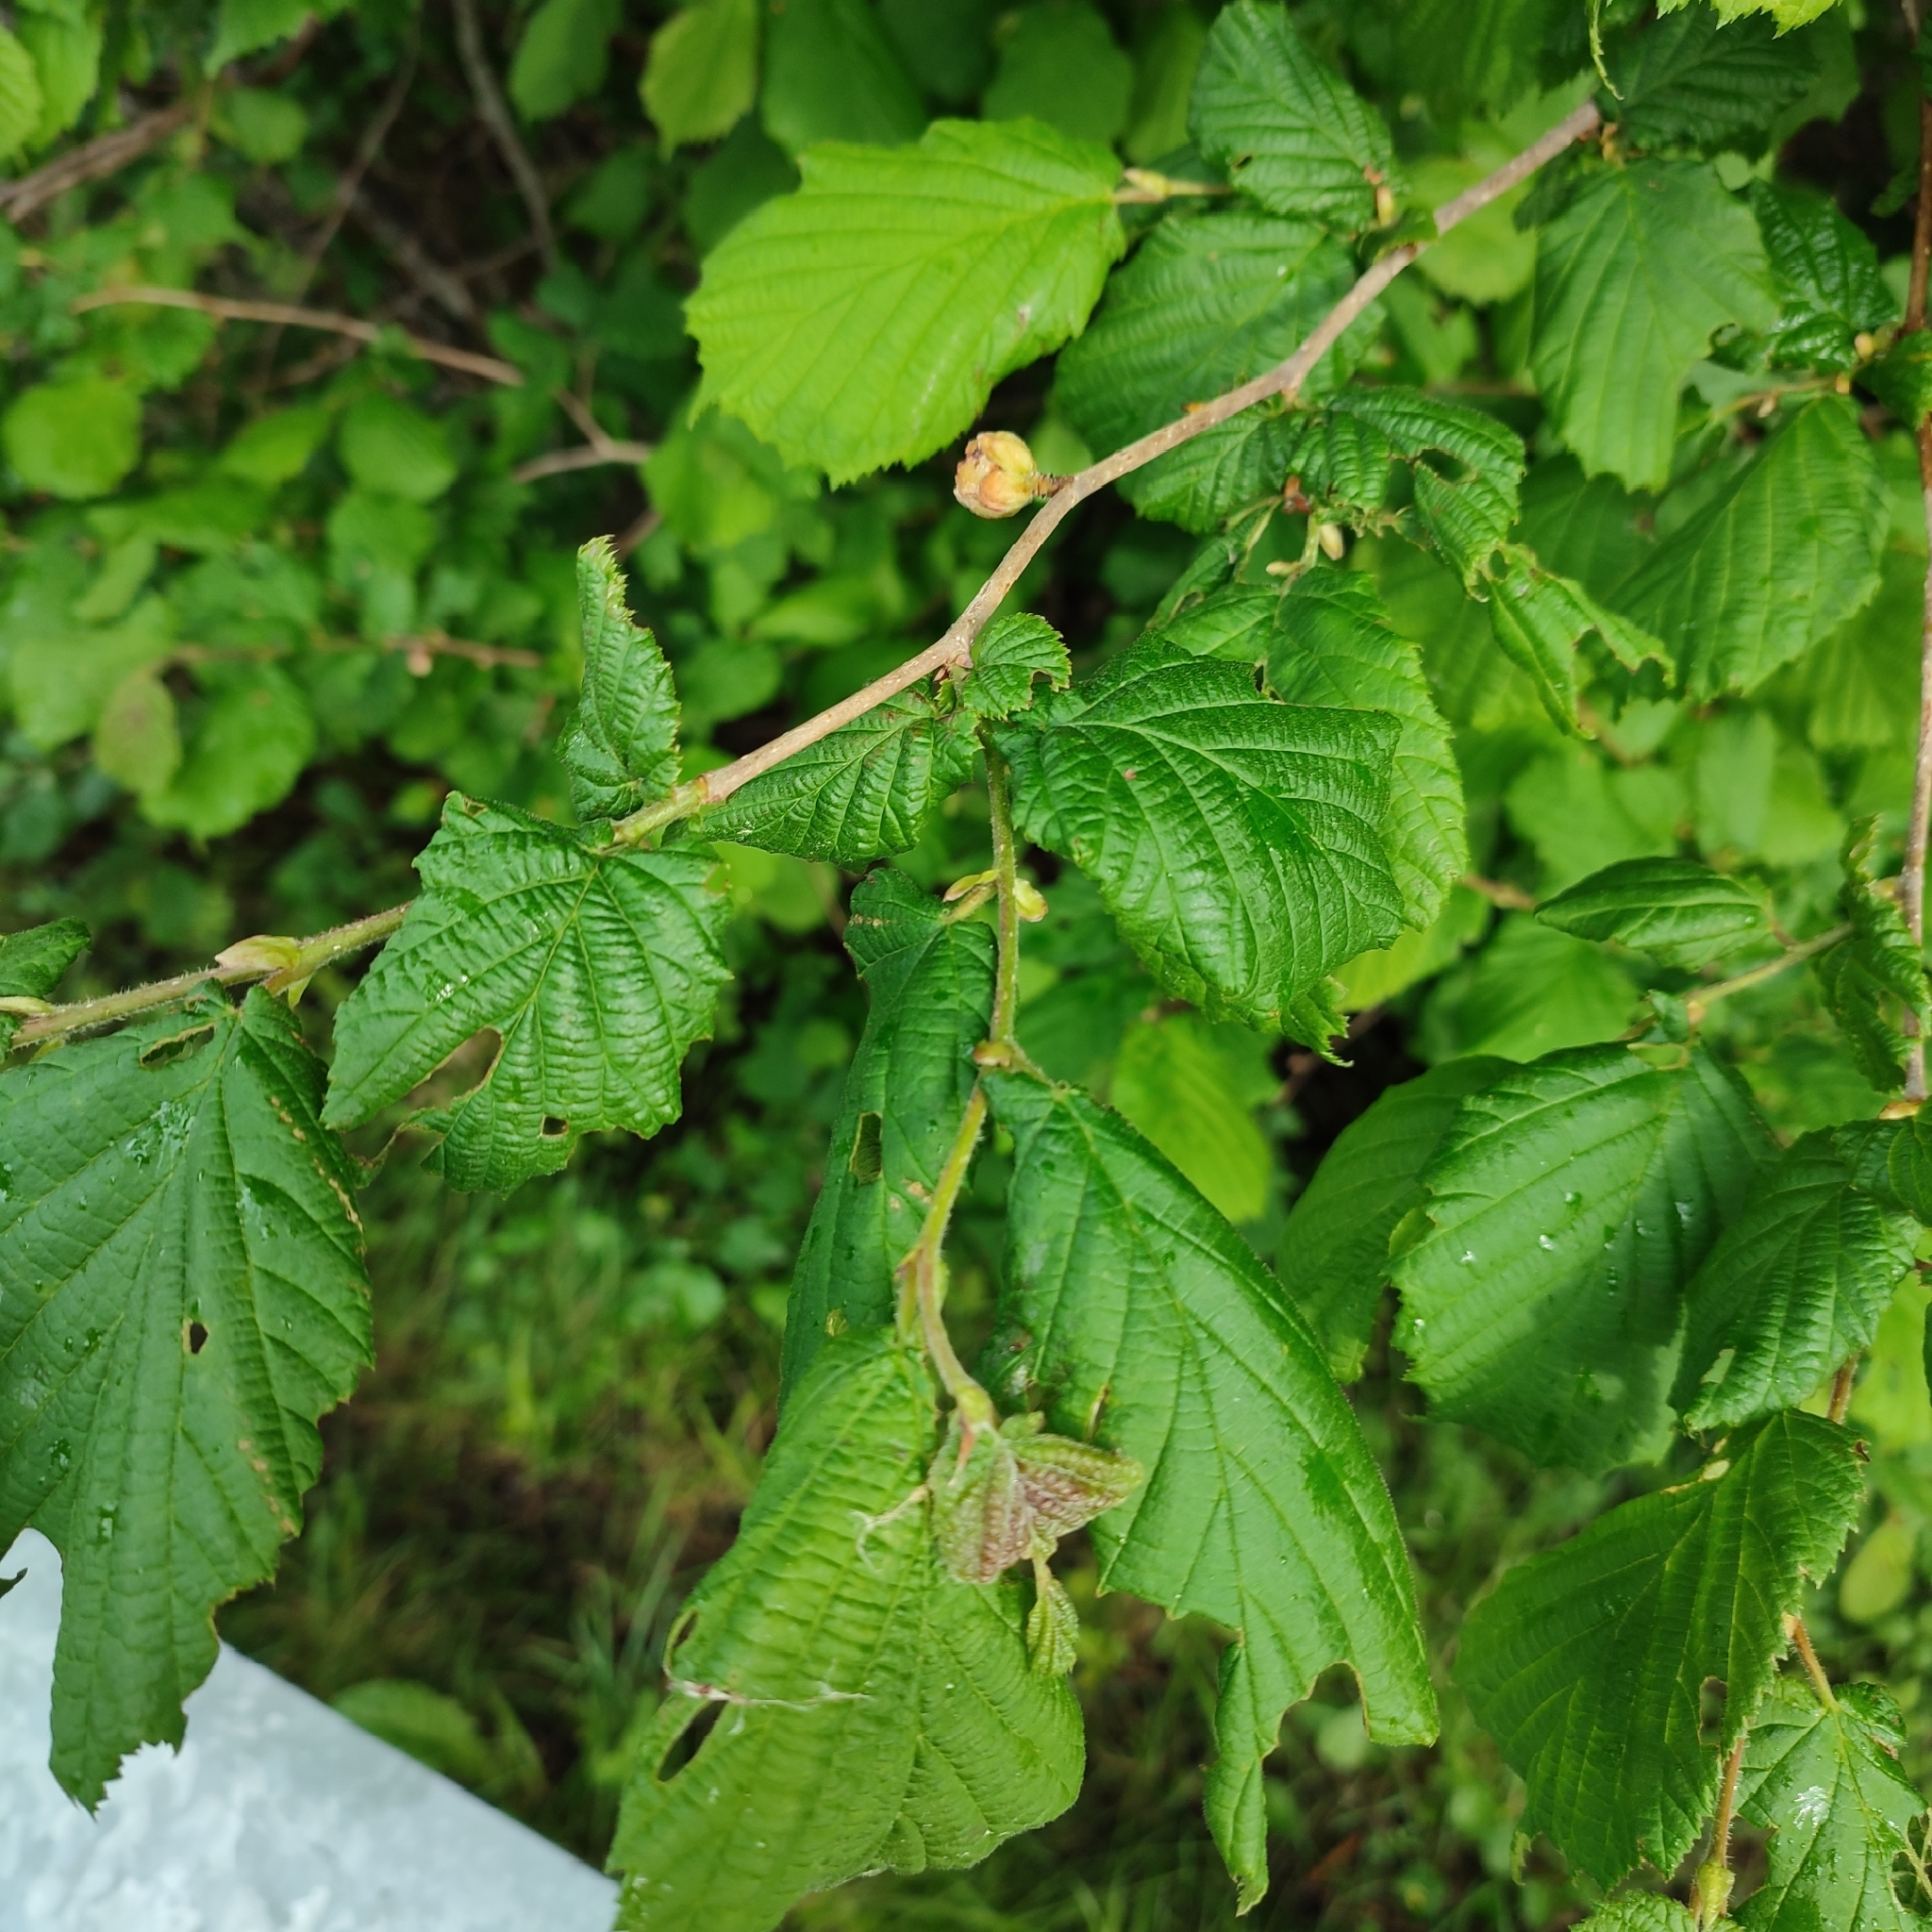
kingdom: Plantae
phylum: Tracheophyta
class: Magnoliopsida
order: Fagales
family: Betulaceae
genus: Corylus
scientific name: Corylus avellana
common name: European hazel
